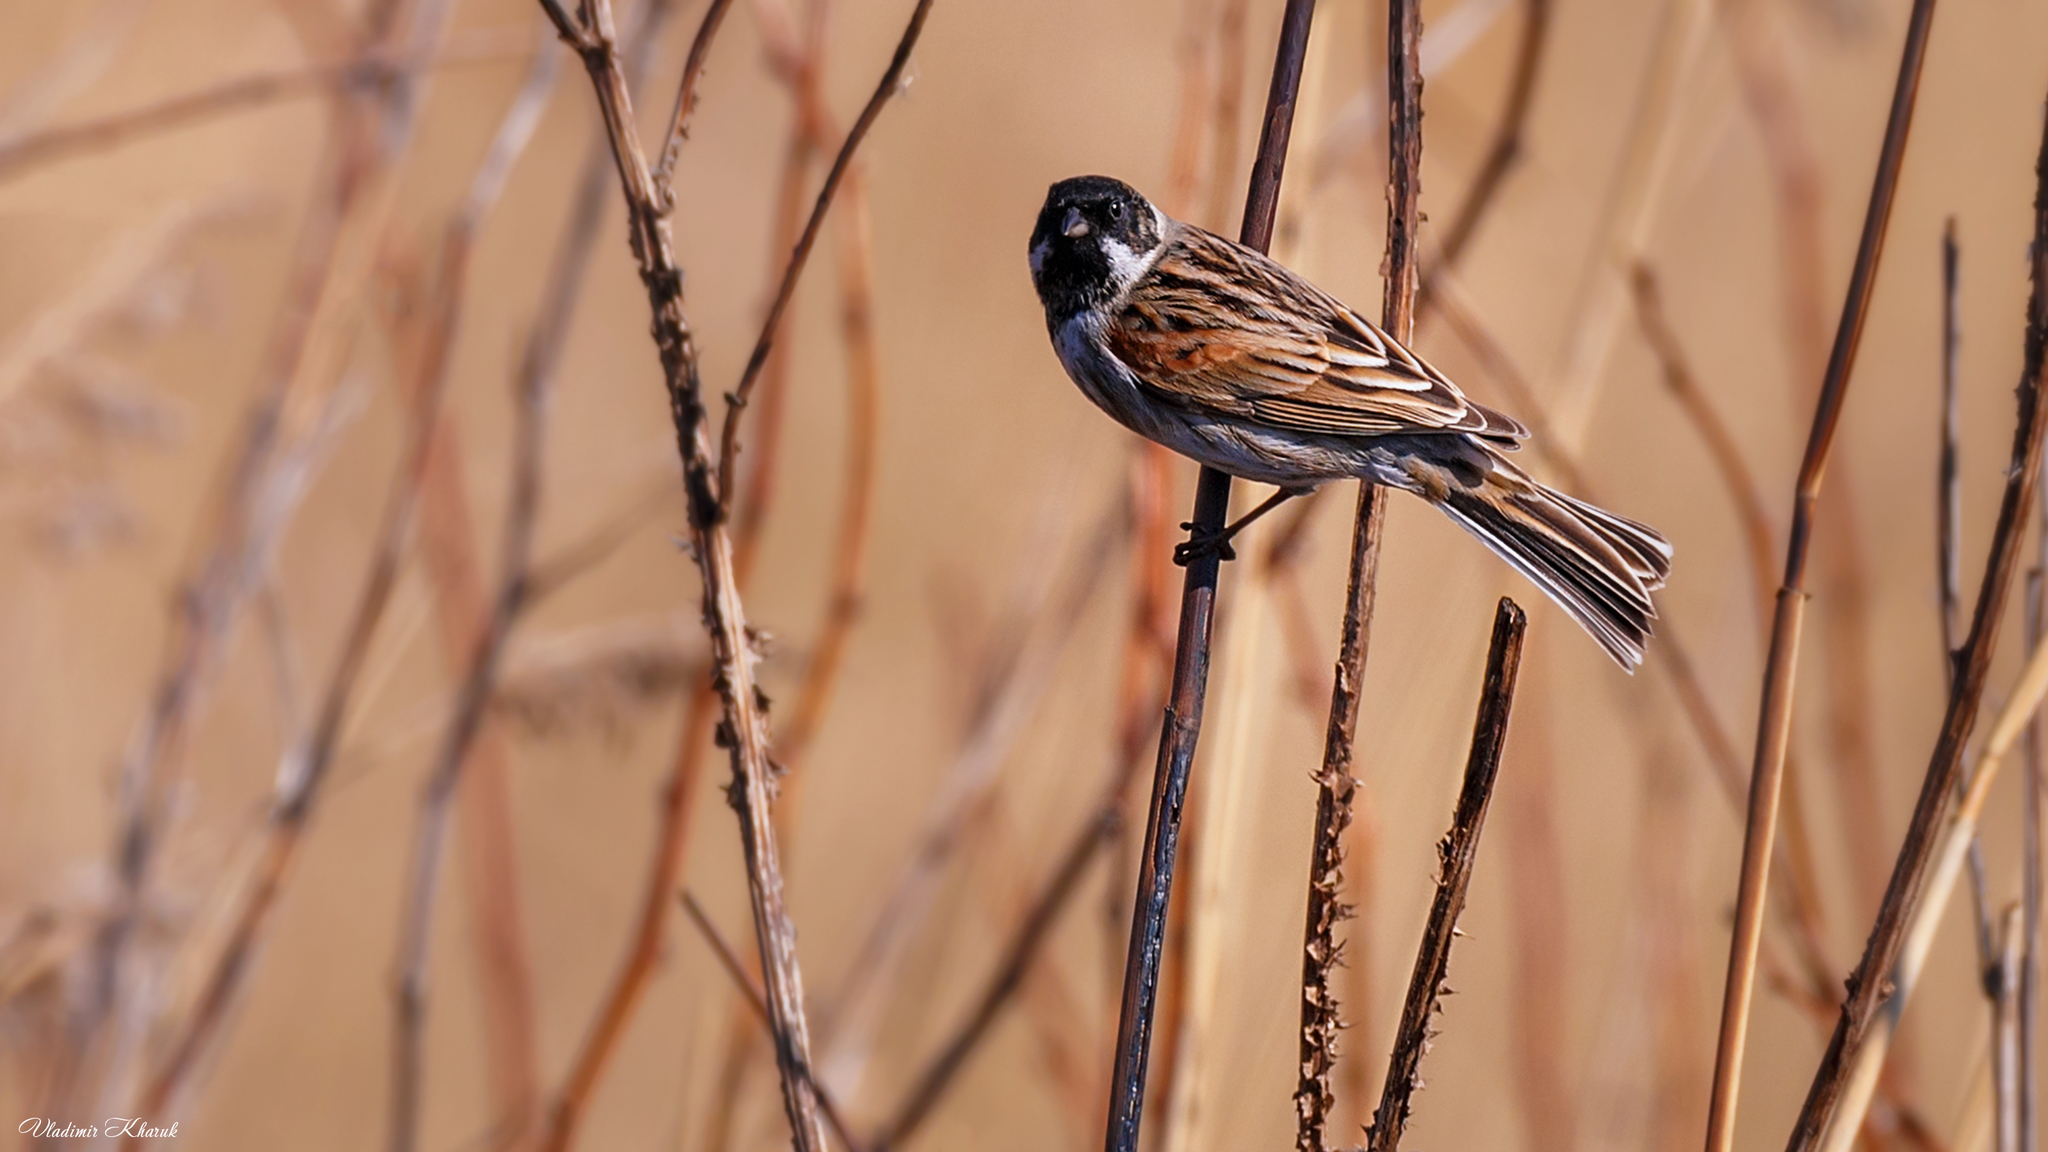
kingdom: Animalia
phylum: Chordata
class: Aves
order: Passeriformes
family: Emberizidae
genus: Emberiza
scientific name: Emberiza schoeniclus
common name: Reed bunting
